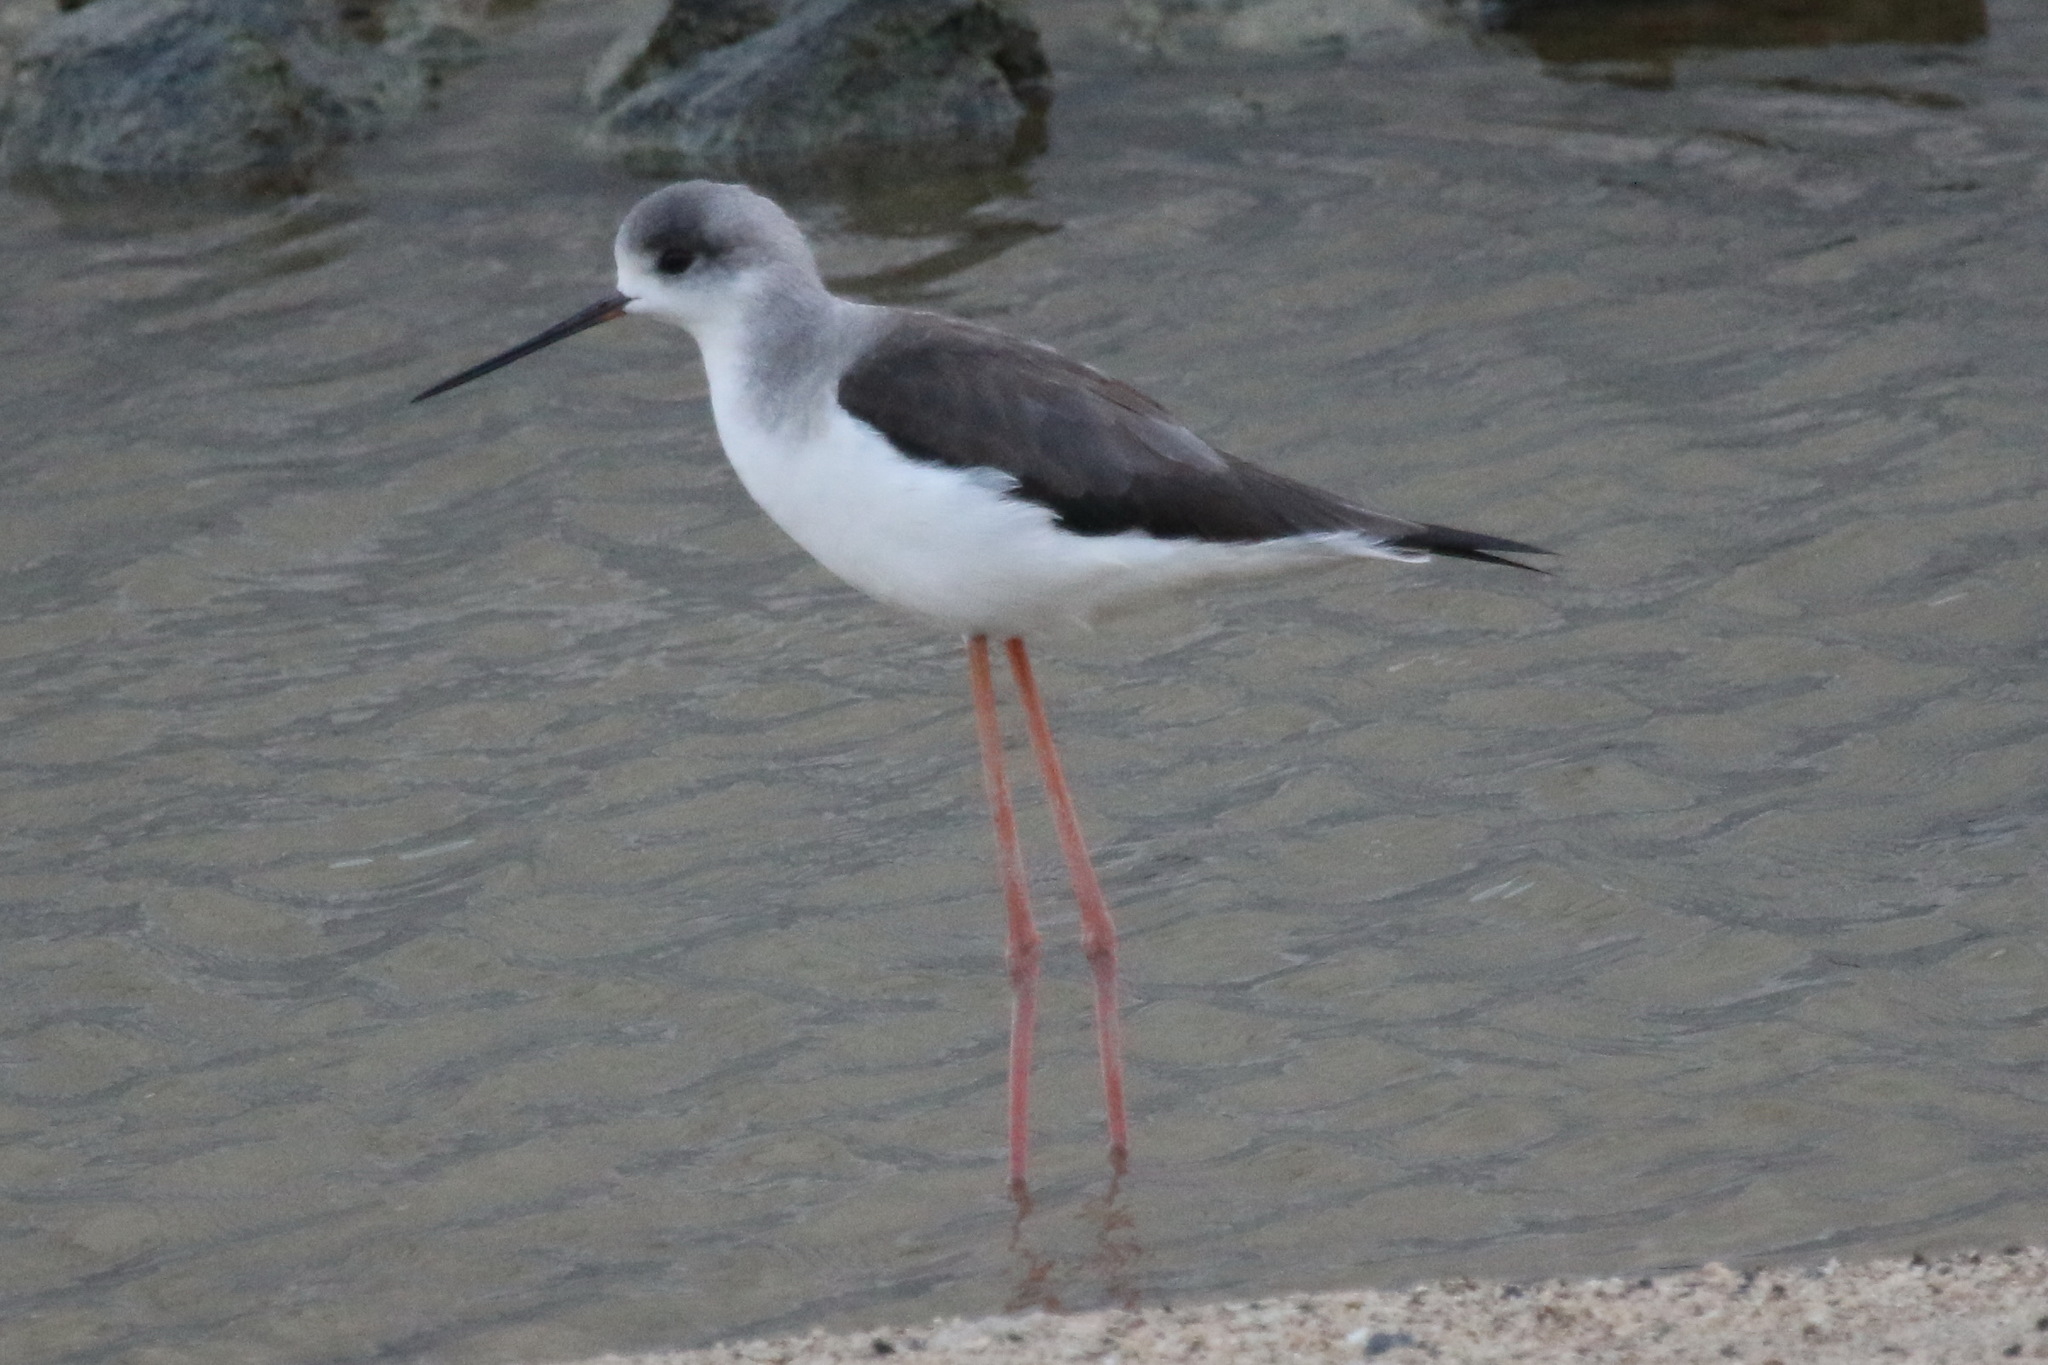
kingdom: Animalia
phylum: Chordata
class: Aves
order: Charadriiformes
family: Recurvirostridae
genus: Himantopus
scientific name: Himantopus himantopus
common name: Black-winged stilt
